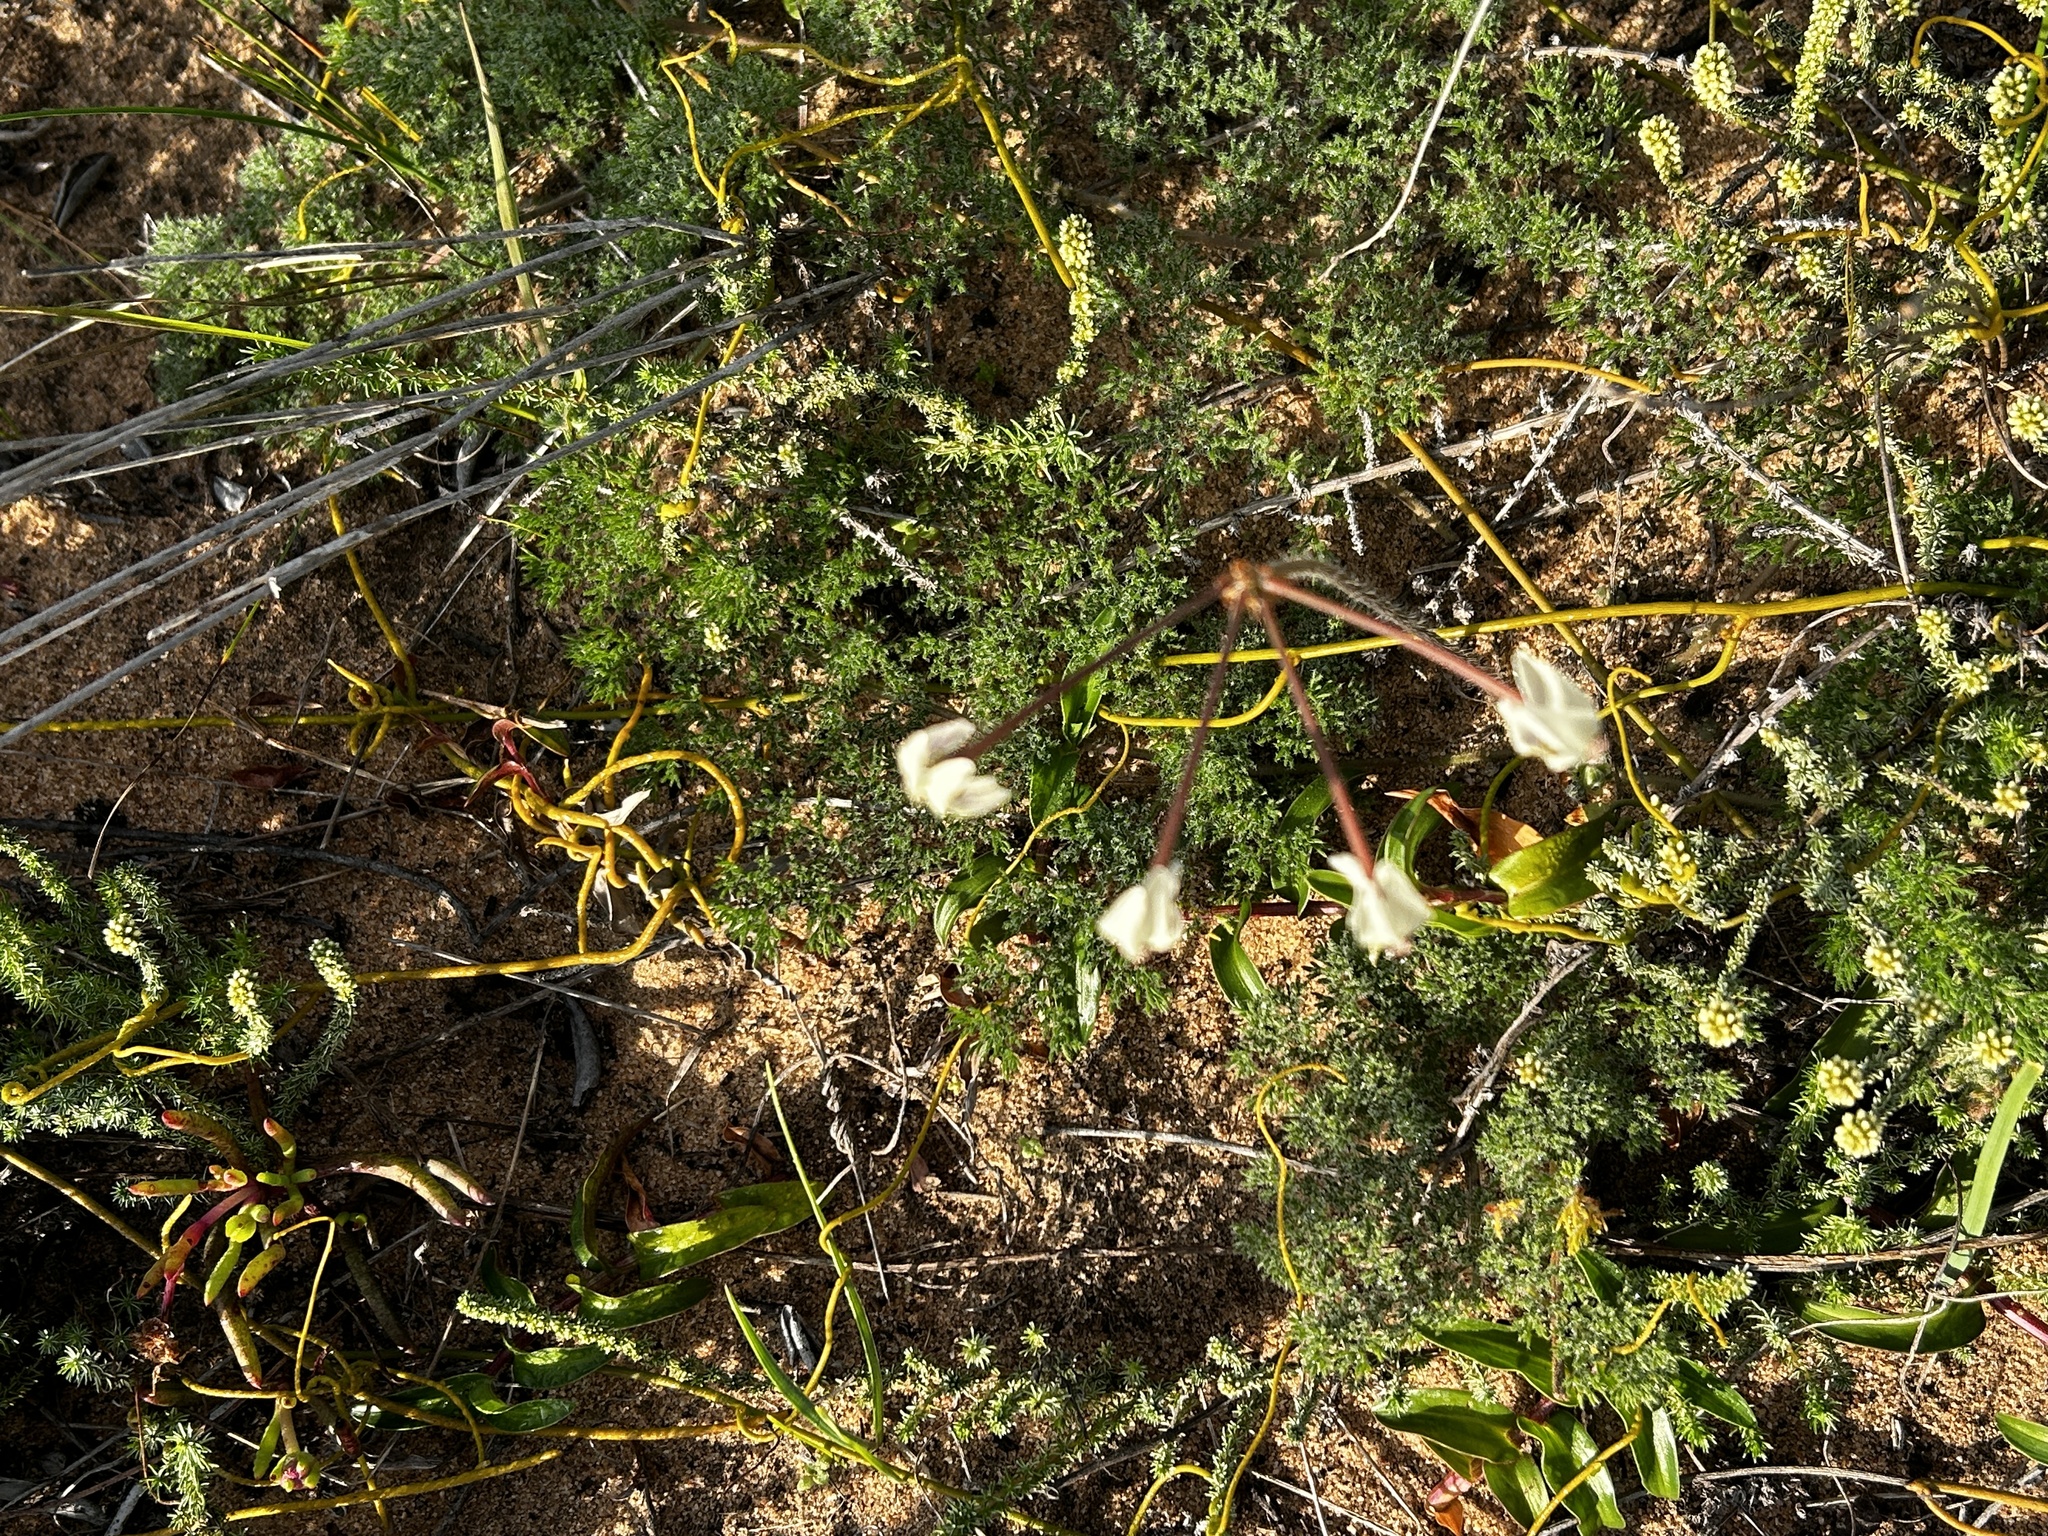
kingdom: Plantae
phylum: Tracheophyta
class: Magnoliopsida
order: Geraniales
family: Geraniaceae
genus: Pelargonium
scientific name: Pelargonium triste
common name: Night-scent pelargonium
